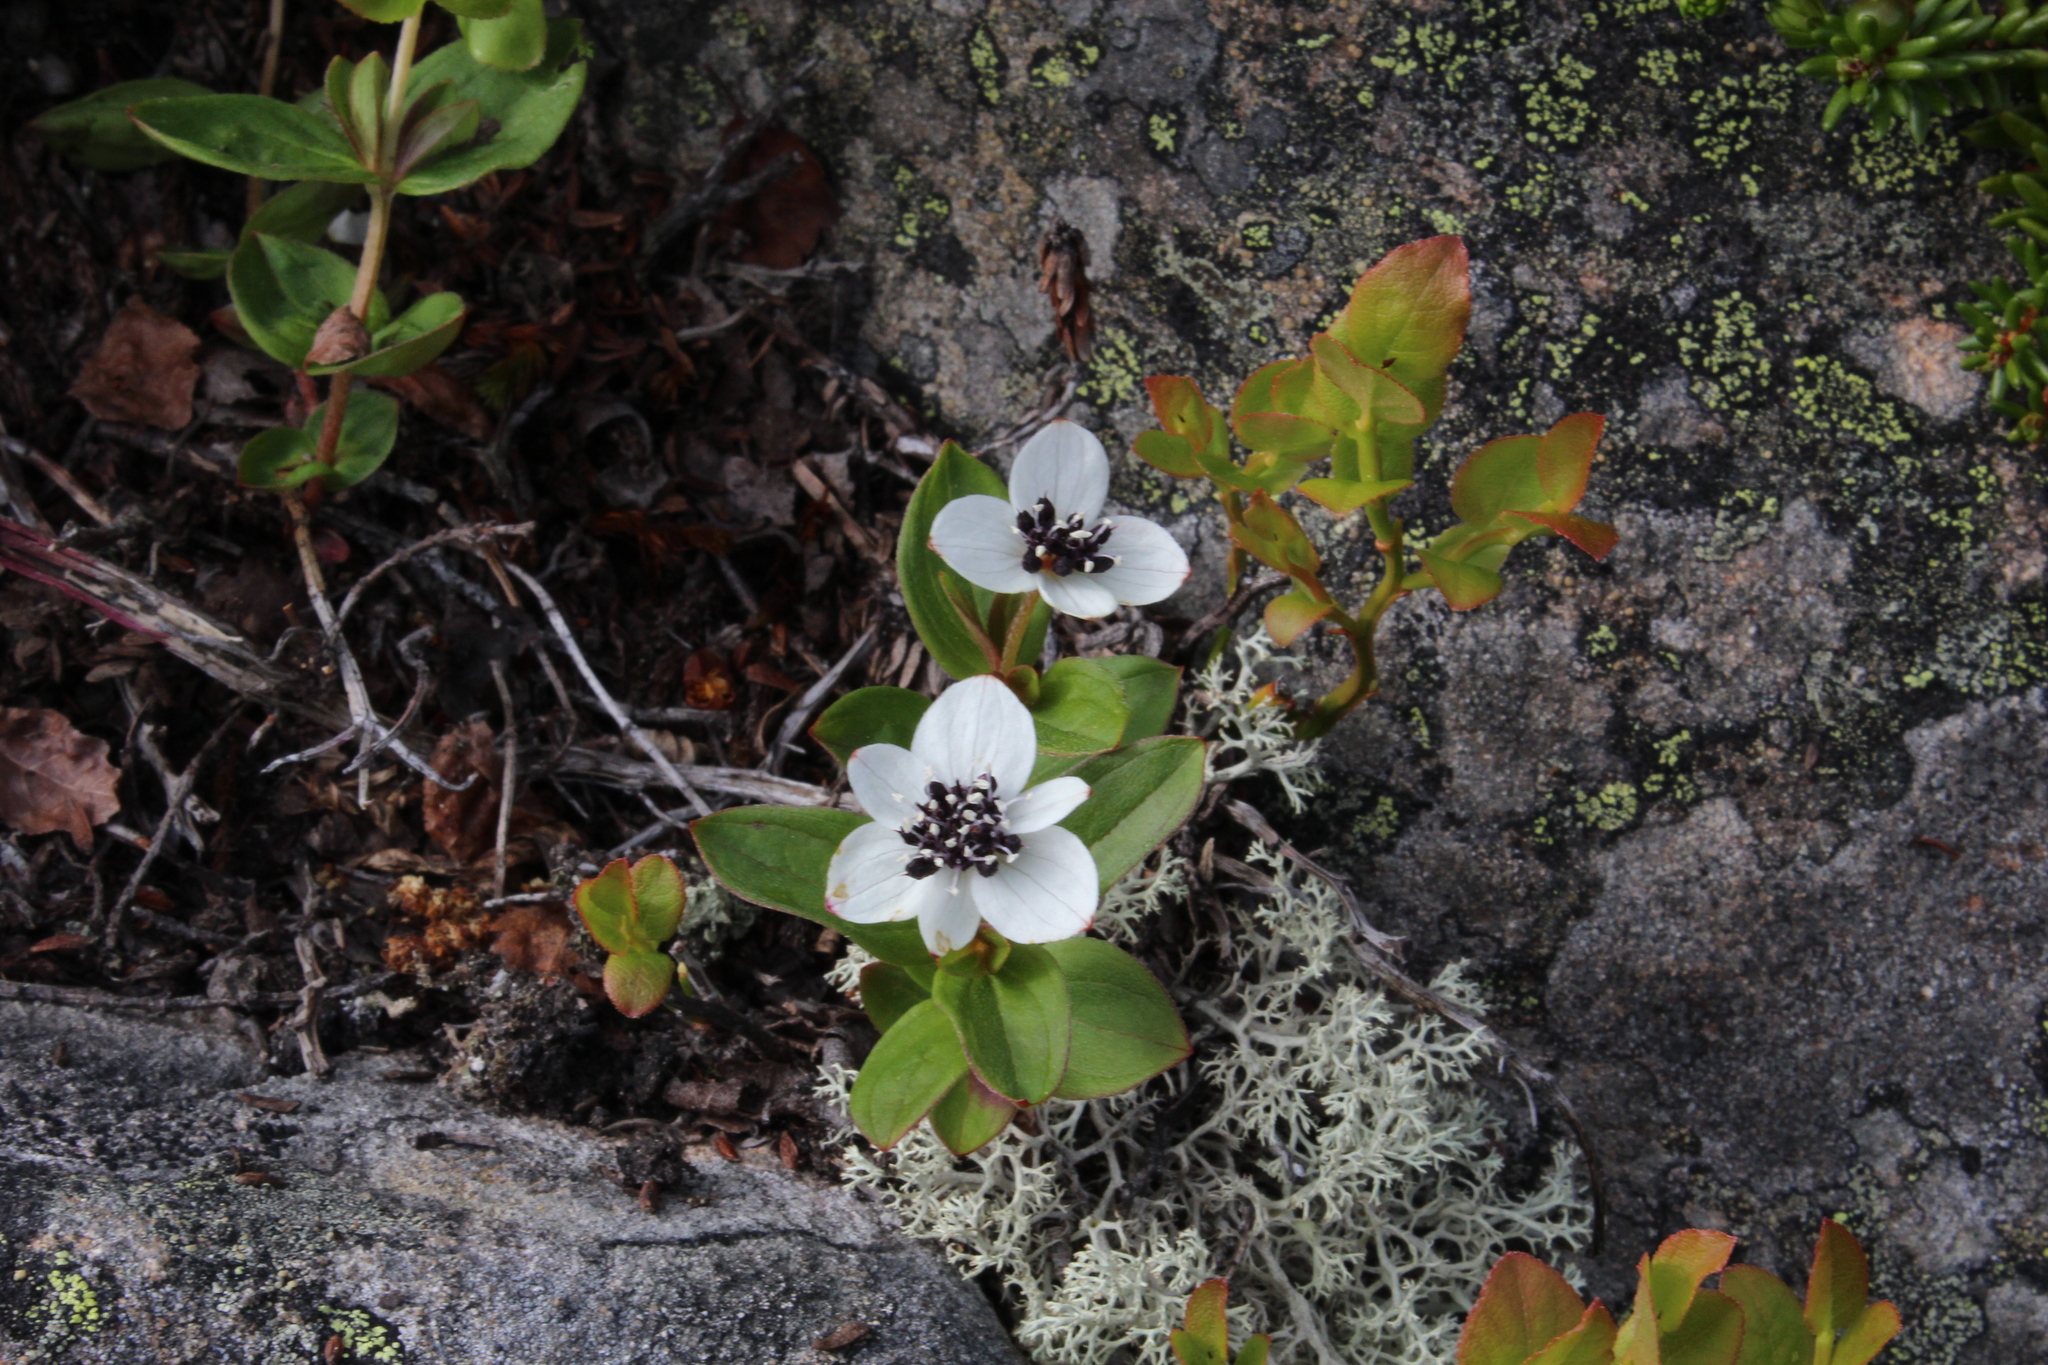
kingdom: Plantae
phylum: Tracheophyta
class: Magnoliopsida
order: Cornales
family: Cornaceae
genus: Cornus
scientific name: Cornus suecica
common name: Dwarf cornel
